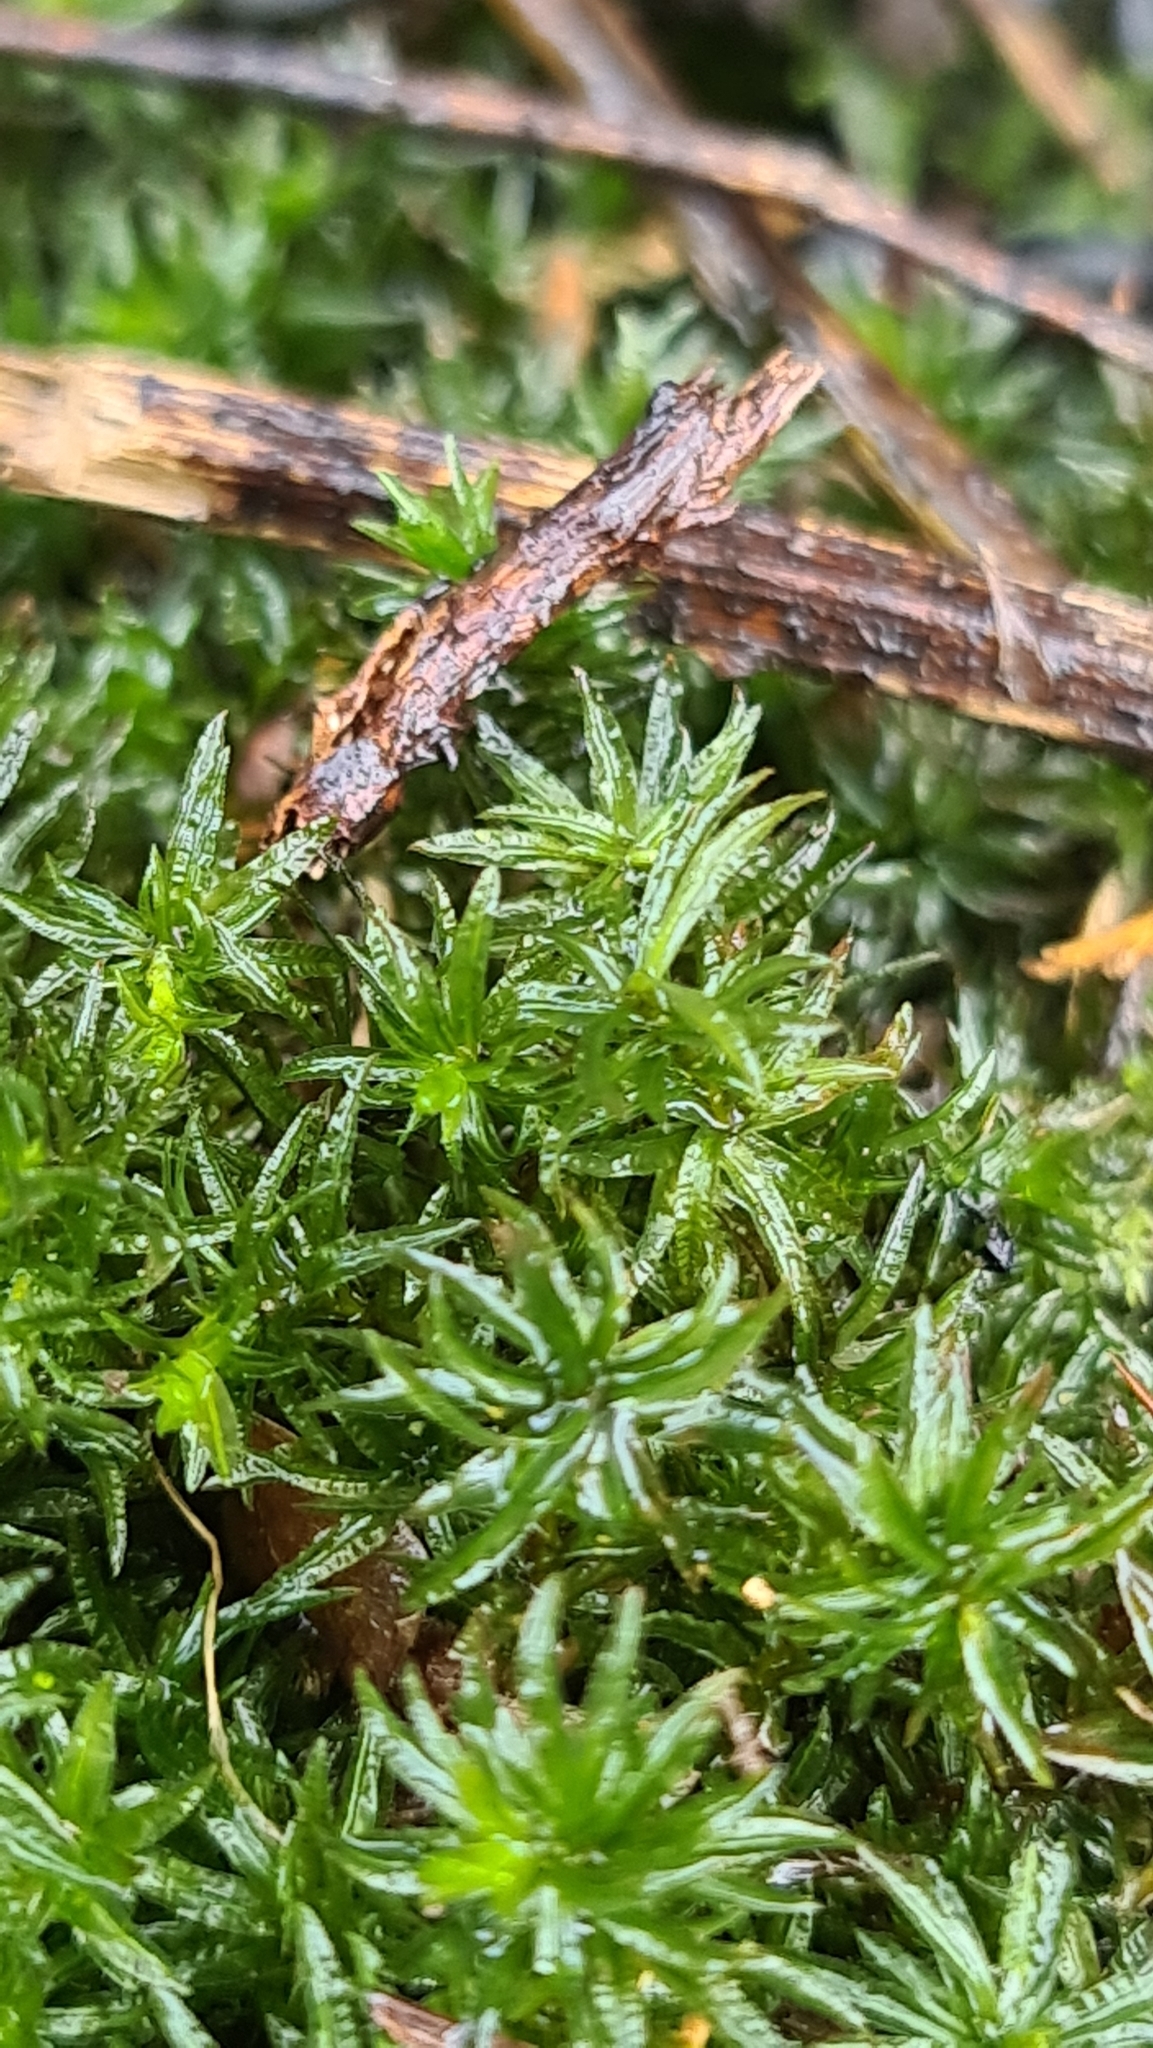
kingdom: Plantae
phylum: Bryophyta
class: Polytrichopsida
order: Polytrichales
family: Polytrichaceae
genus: Atrichum
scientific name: Atrichum undulatum
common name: Common smoothcap
